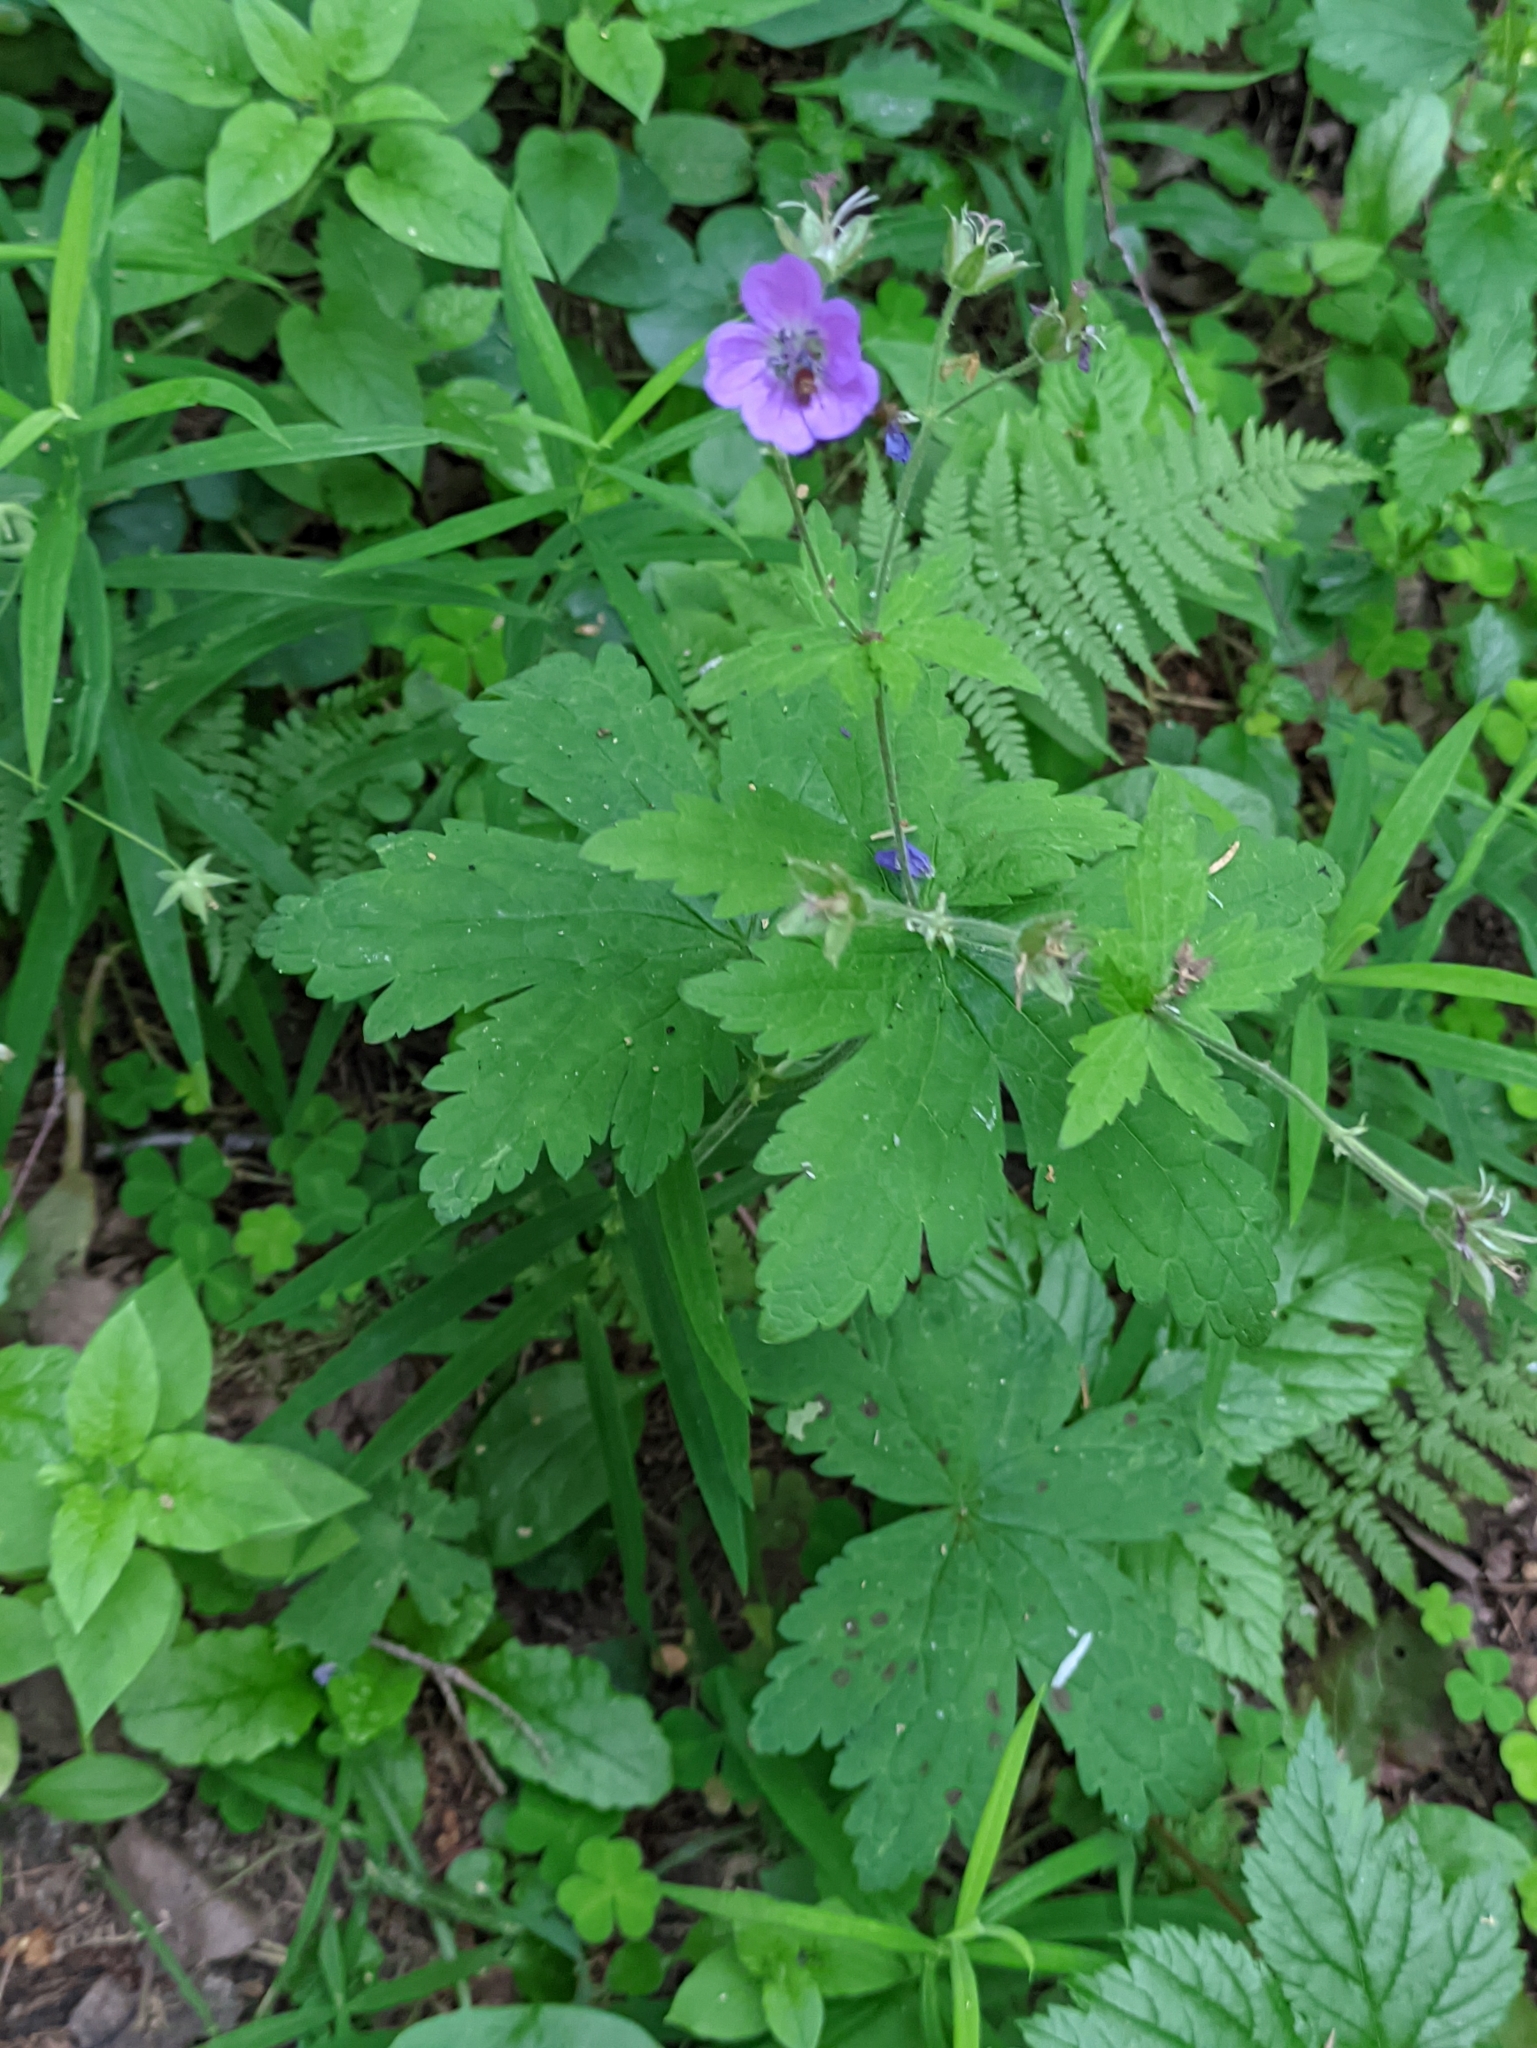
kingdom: Plantae
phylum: Tracheophyta
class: Magnoliopsida
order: Geraniales
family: Geraniaceae
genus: Geranium
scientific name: Geranium sylvaticum
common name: Wood crane's-bill
